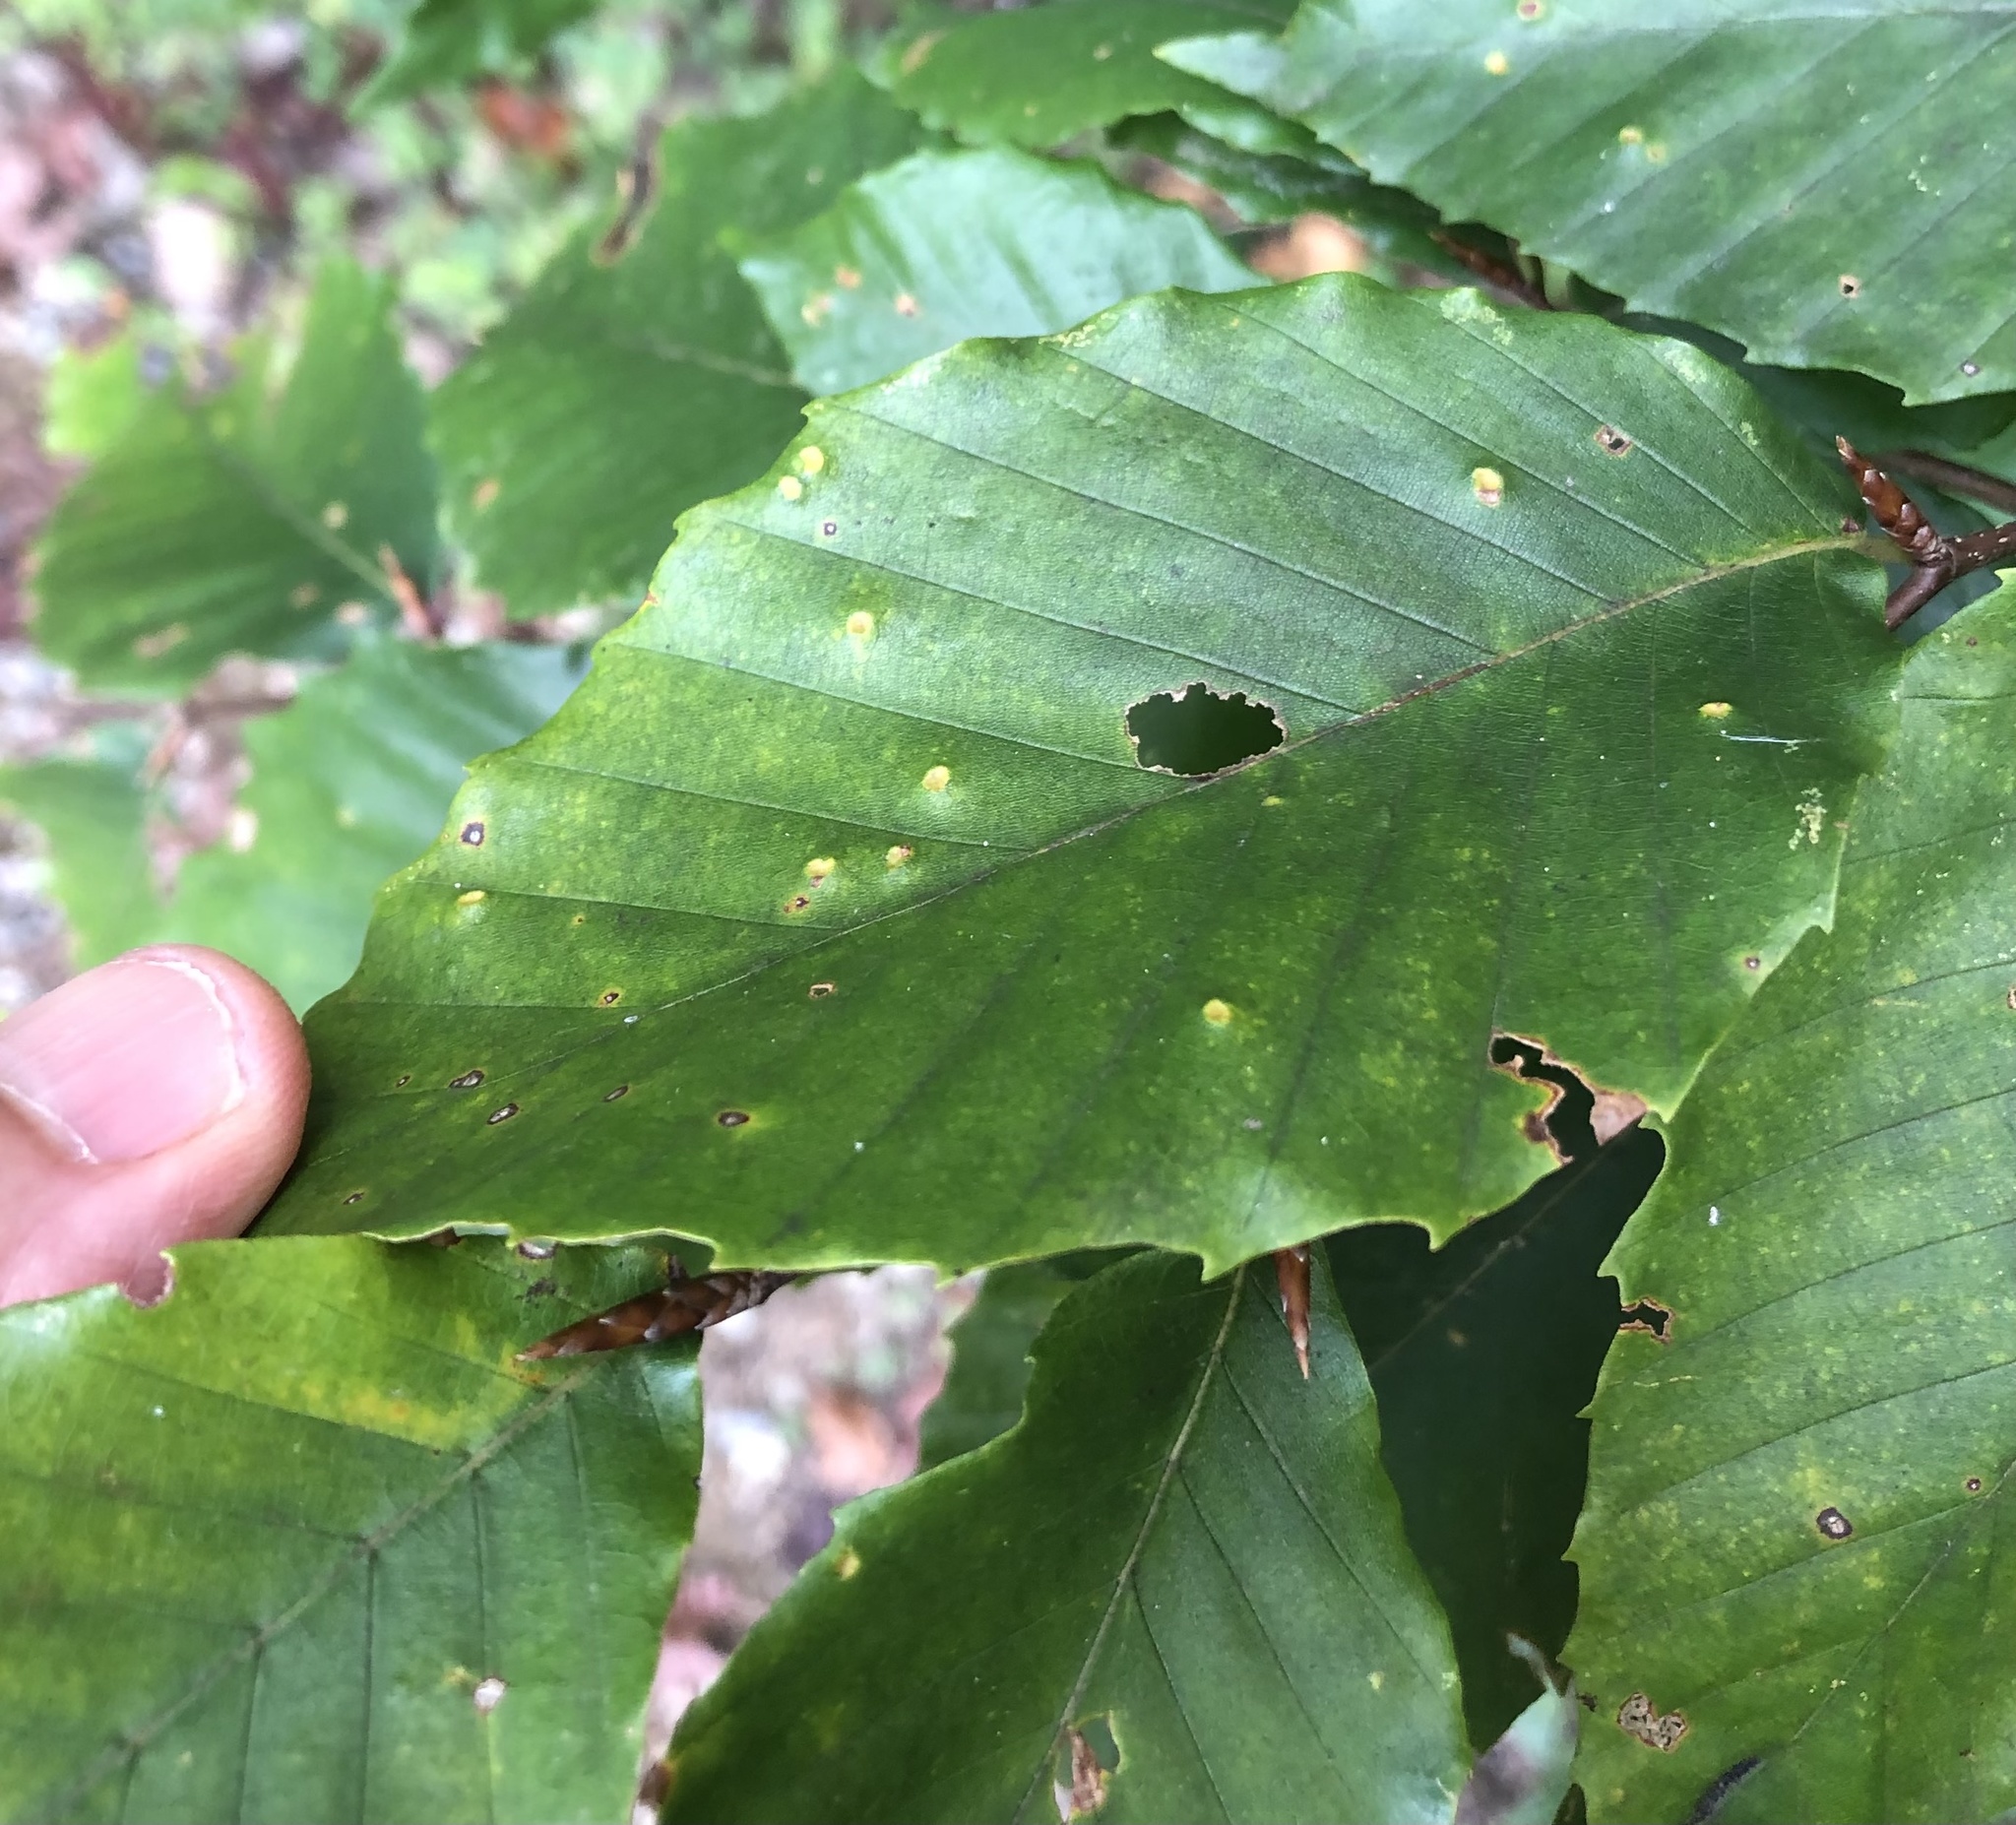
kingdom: Animalia
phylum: Arthropoda
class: Arachnida
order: Trombidiformes
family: Eriophyidae
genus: Acalitus
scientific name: Acalitus
